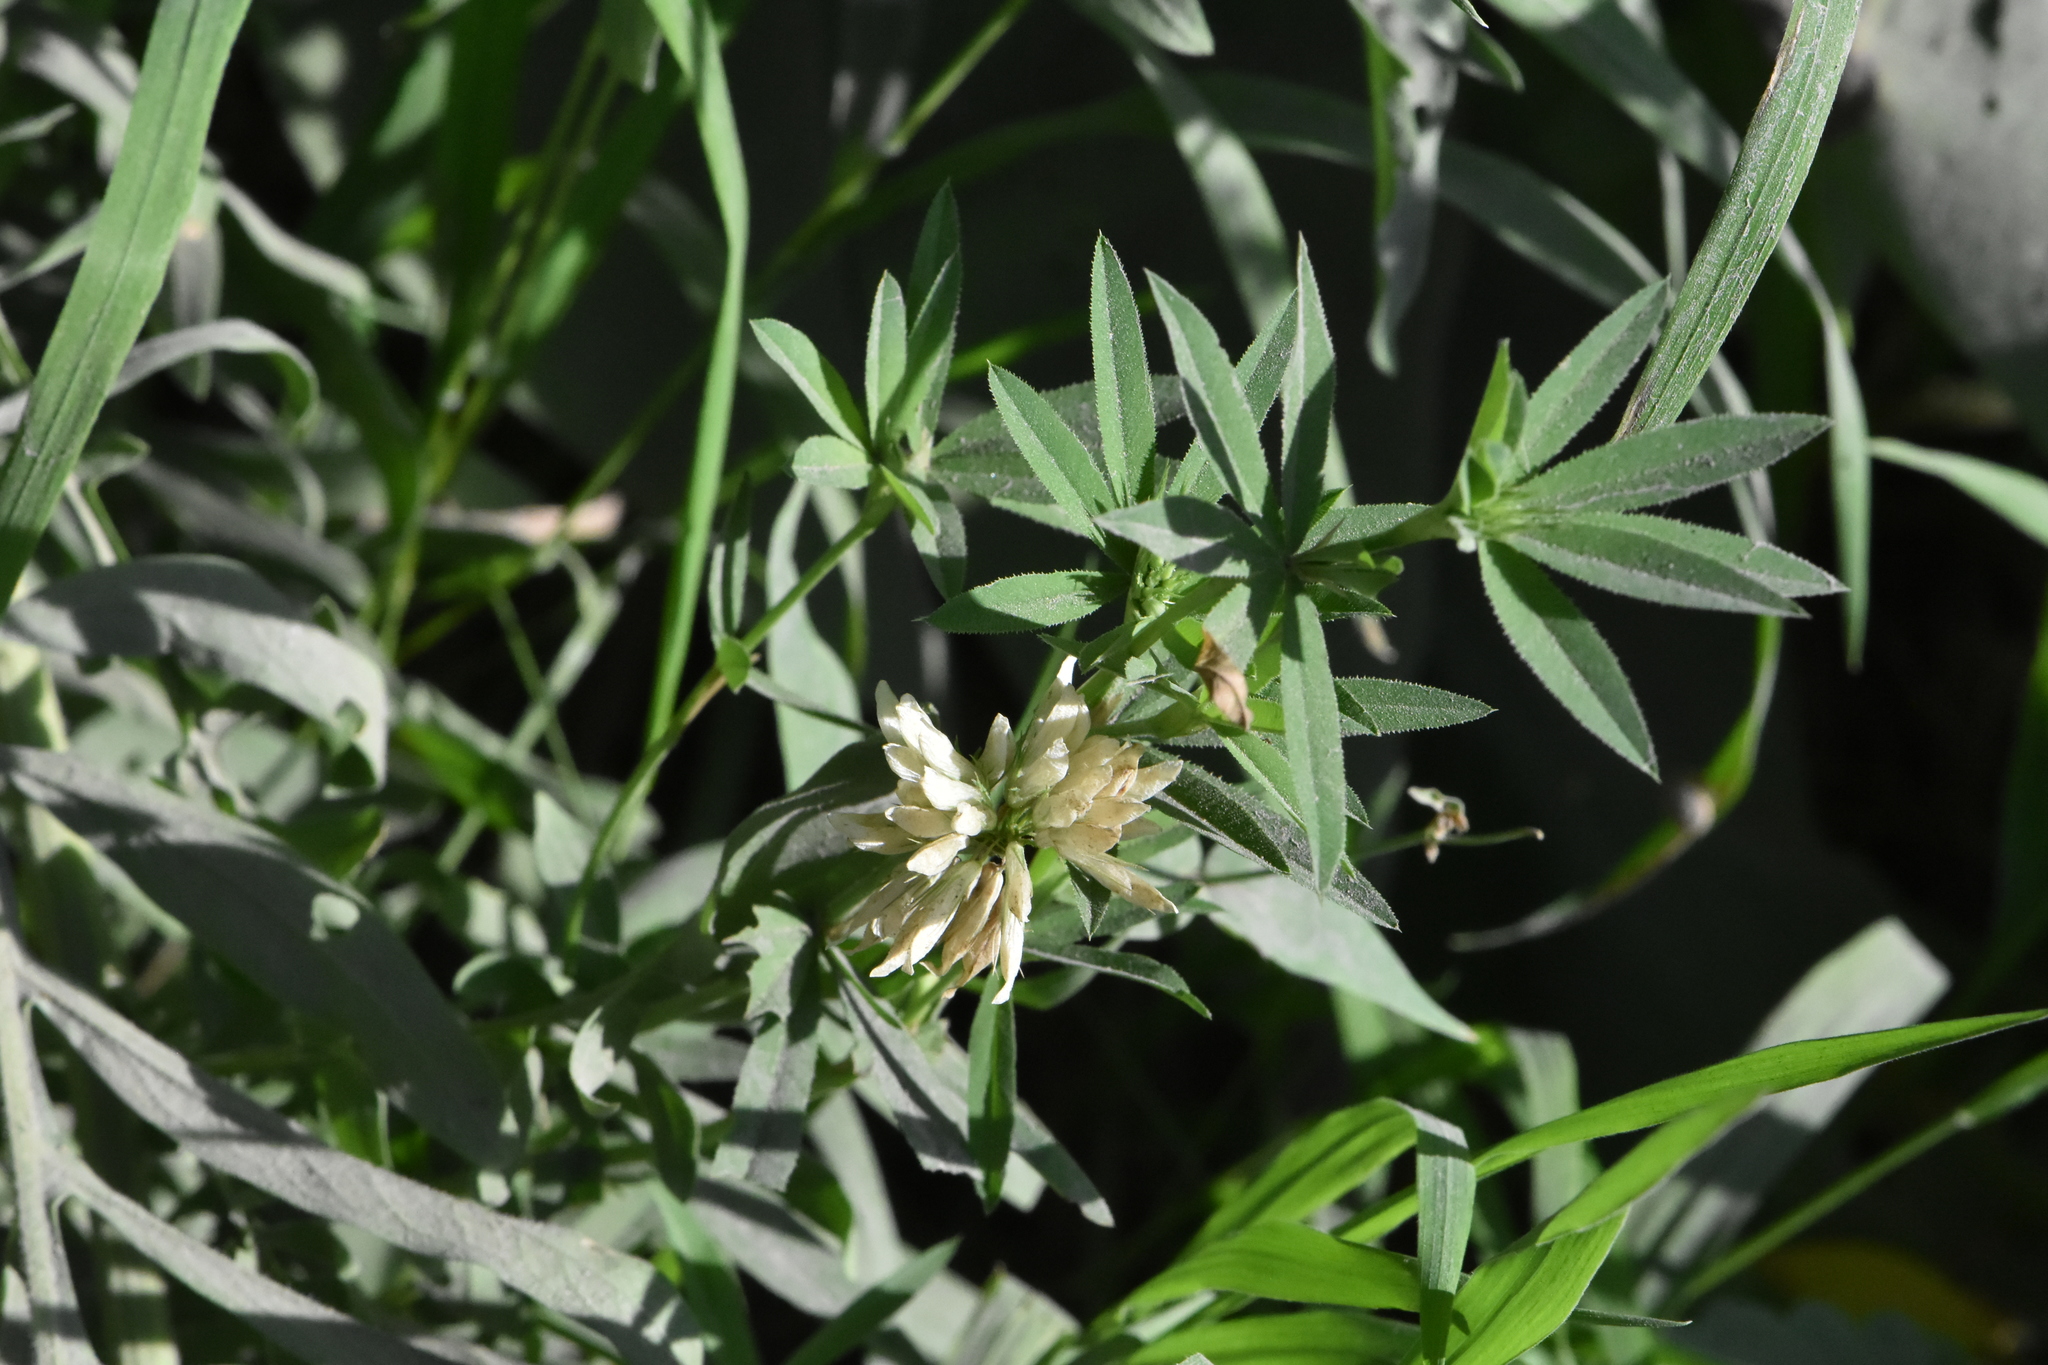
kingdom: Plantae
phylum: Tracheophyta
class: Magnoliopsida
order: Fabales
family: Fabaceae
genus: Trifolium
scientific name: Trifolium lupinaster
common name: Lupine clover
